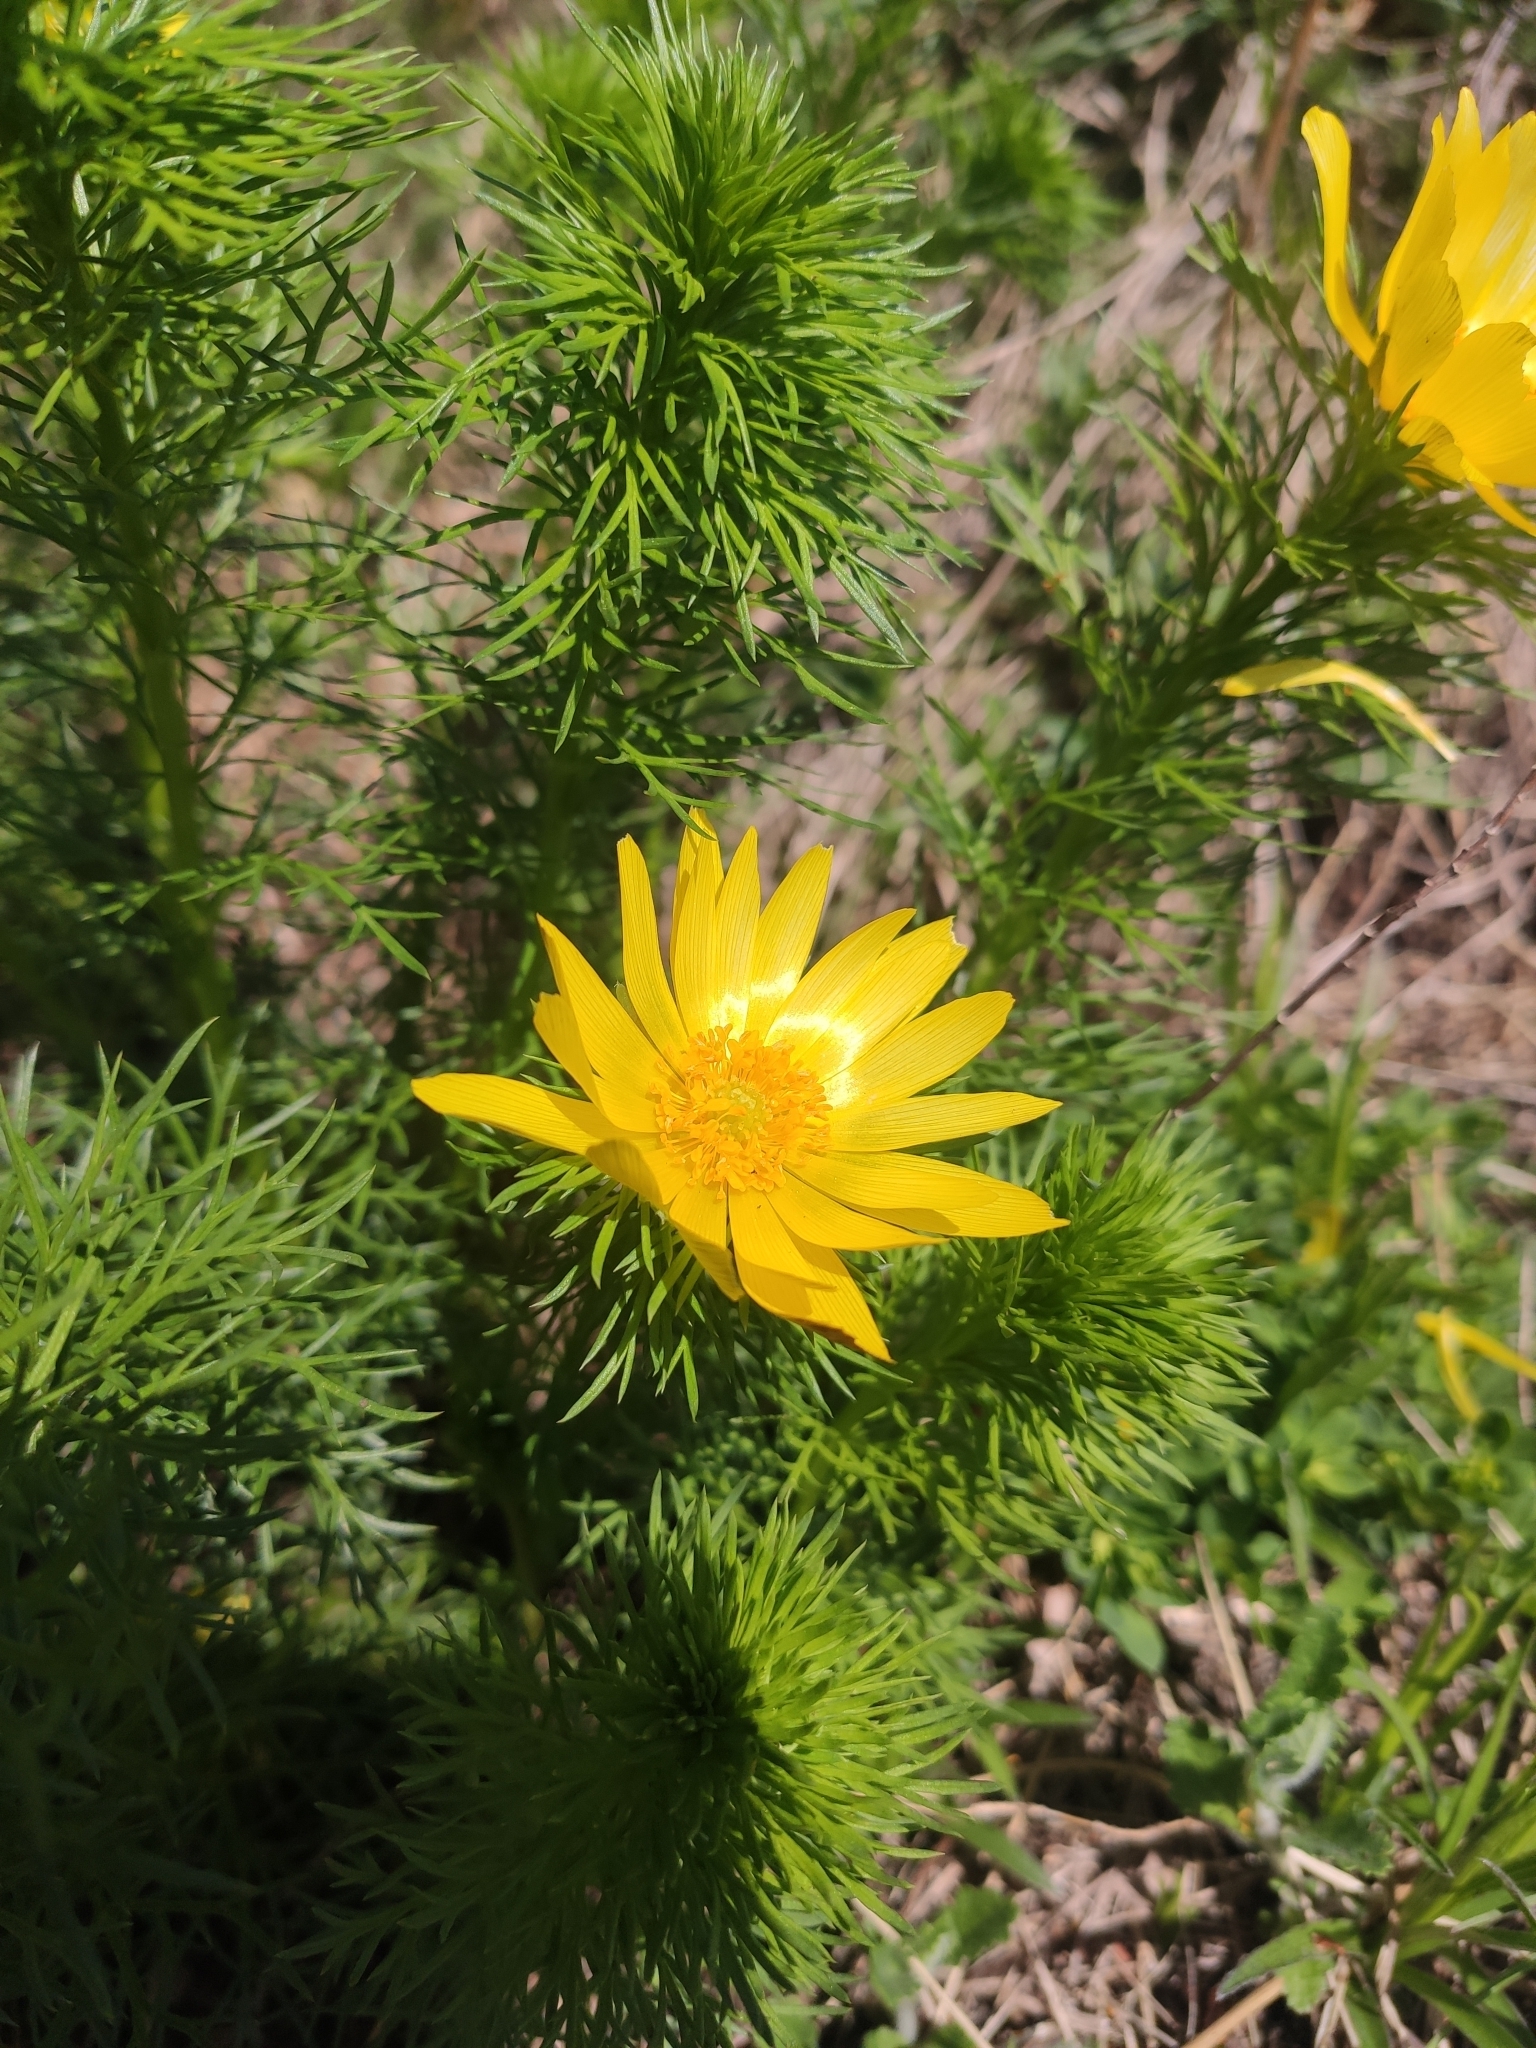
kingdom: Plantae
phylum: Tracheophyta
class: Magnoliopsida
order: Ranunculales
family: Ranunculaceae
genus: Adonis
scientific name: Adonis vernalis
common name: Yellow pheasants-eye
